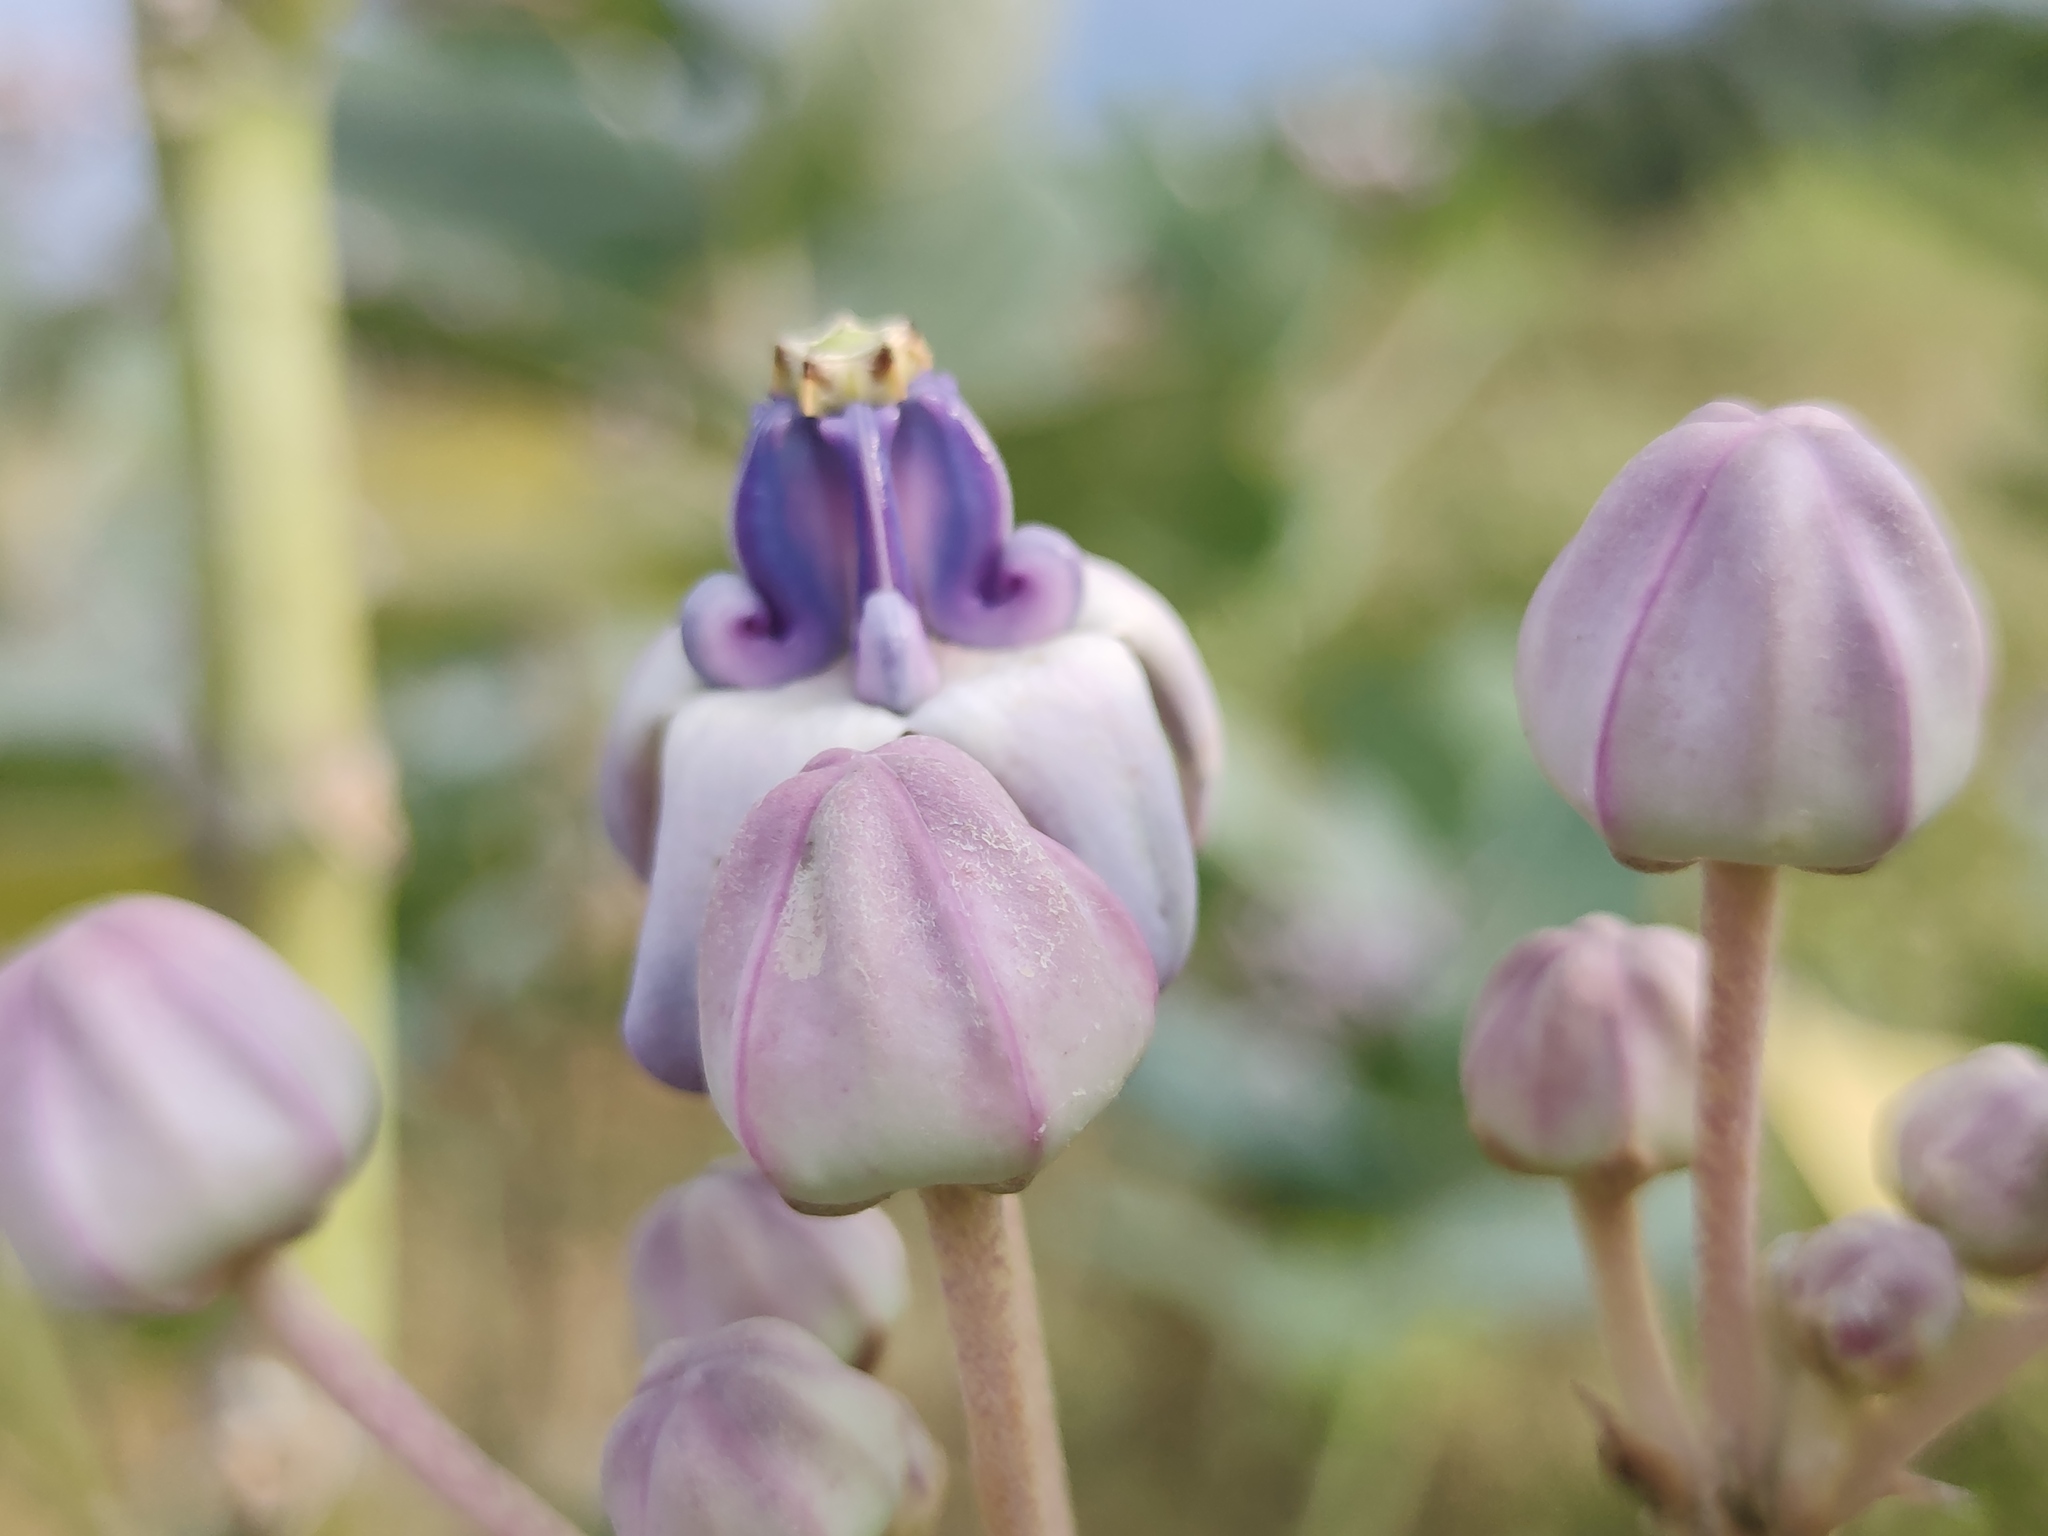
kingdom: Plantae
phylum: Tracheophyta
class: Magnoliopsida
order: Gentianales
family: Apocynaceae
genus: Calotropis
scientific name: Calotropis gigantea
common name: Crown flower
